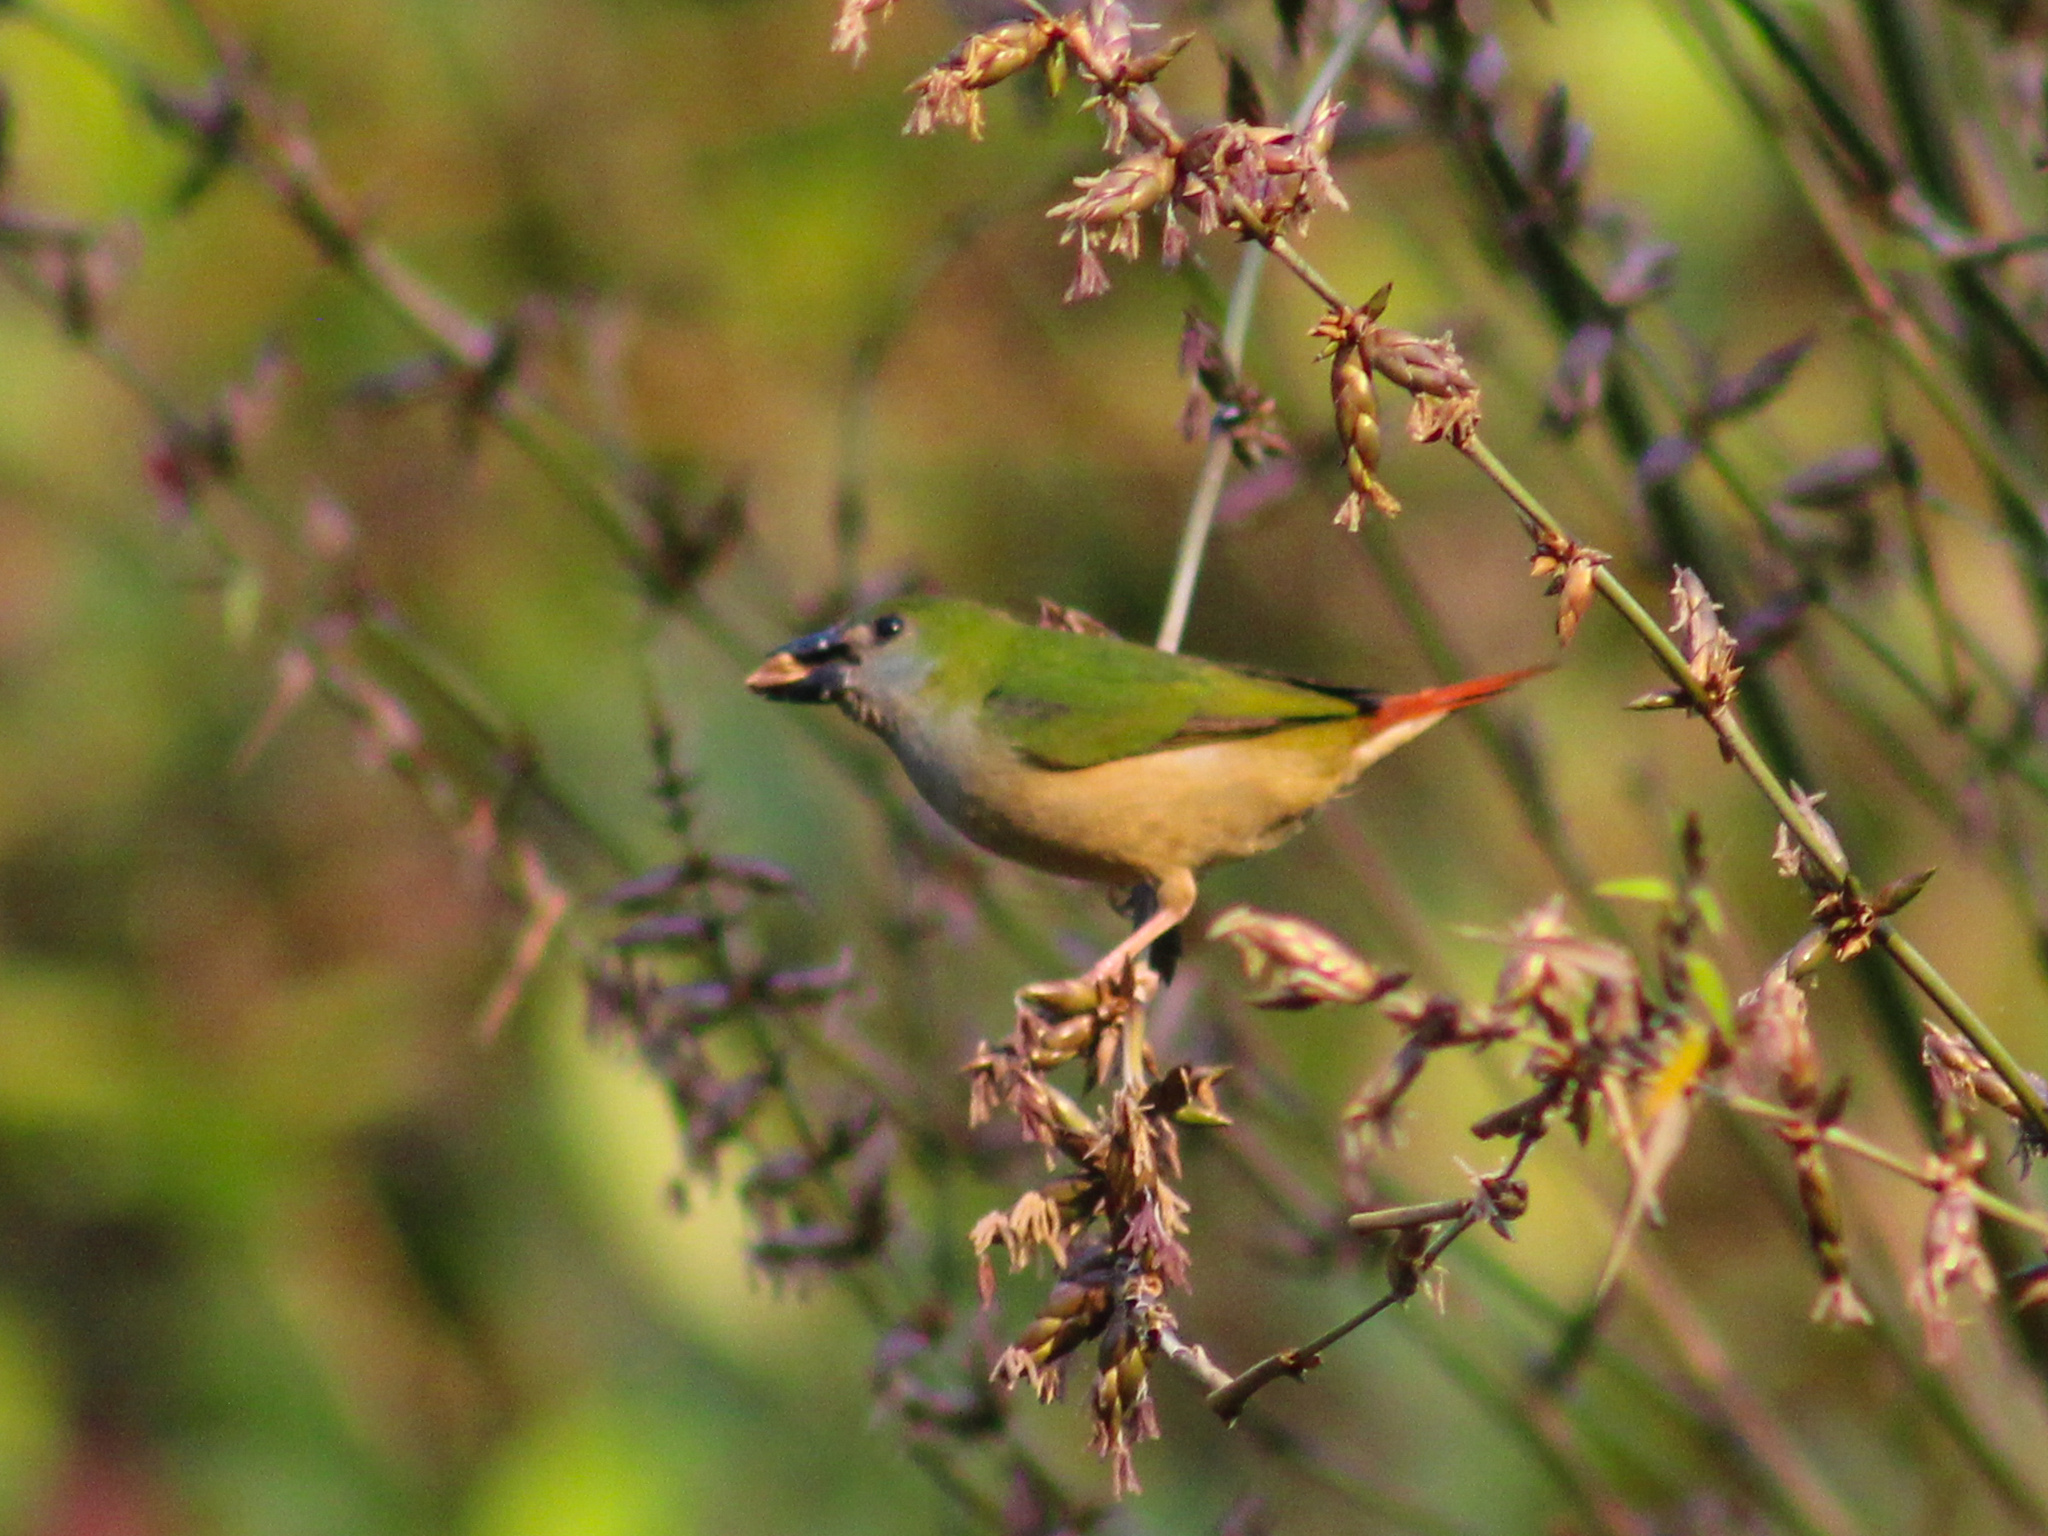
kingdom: Animalia
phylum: Chordata
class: Aves
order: Passeriformes
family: Estrildidae
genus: Erythrura
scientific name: Erythrura prasina
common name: Pin-tailed parrotfinch
